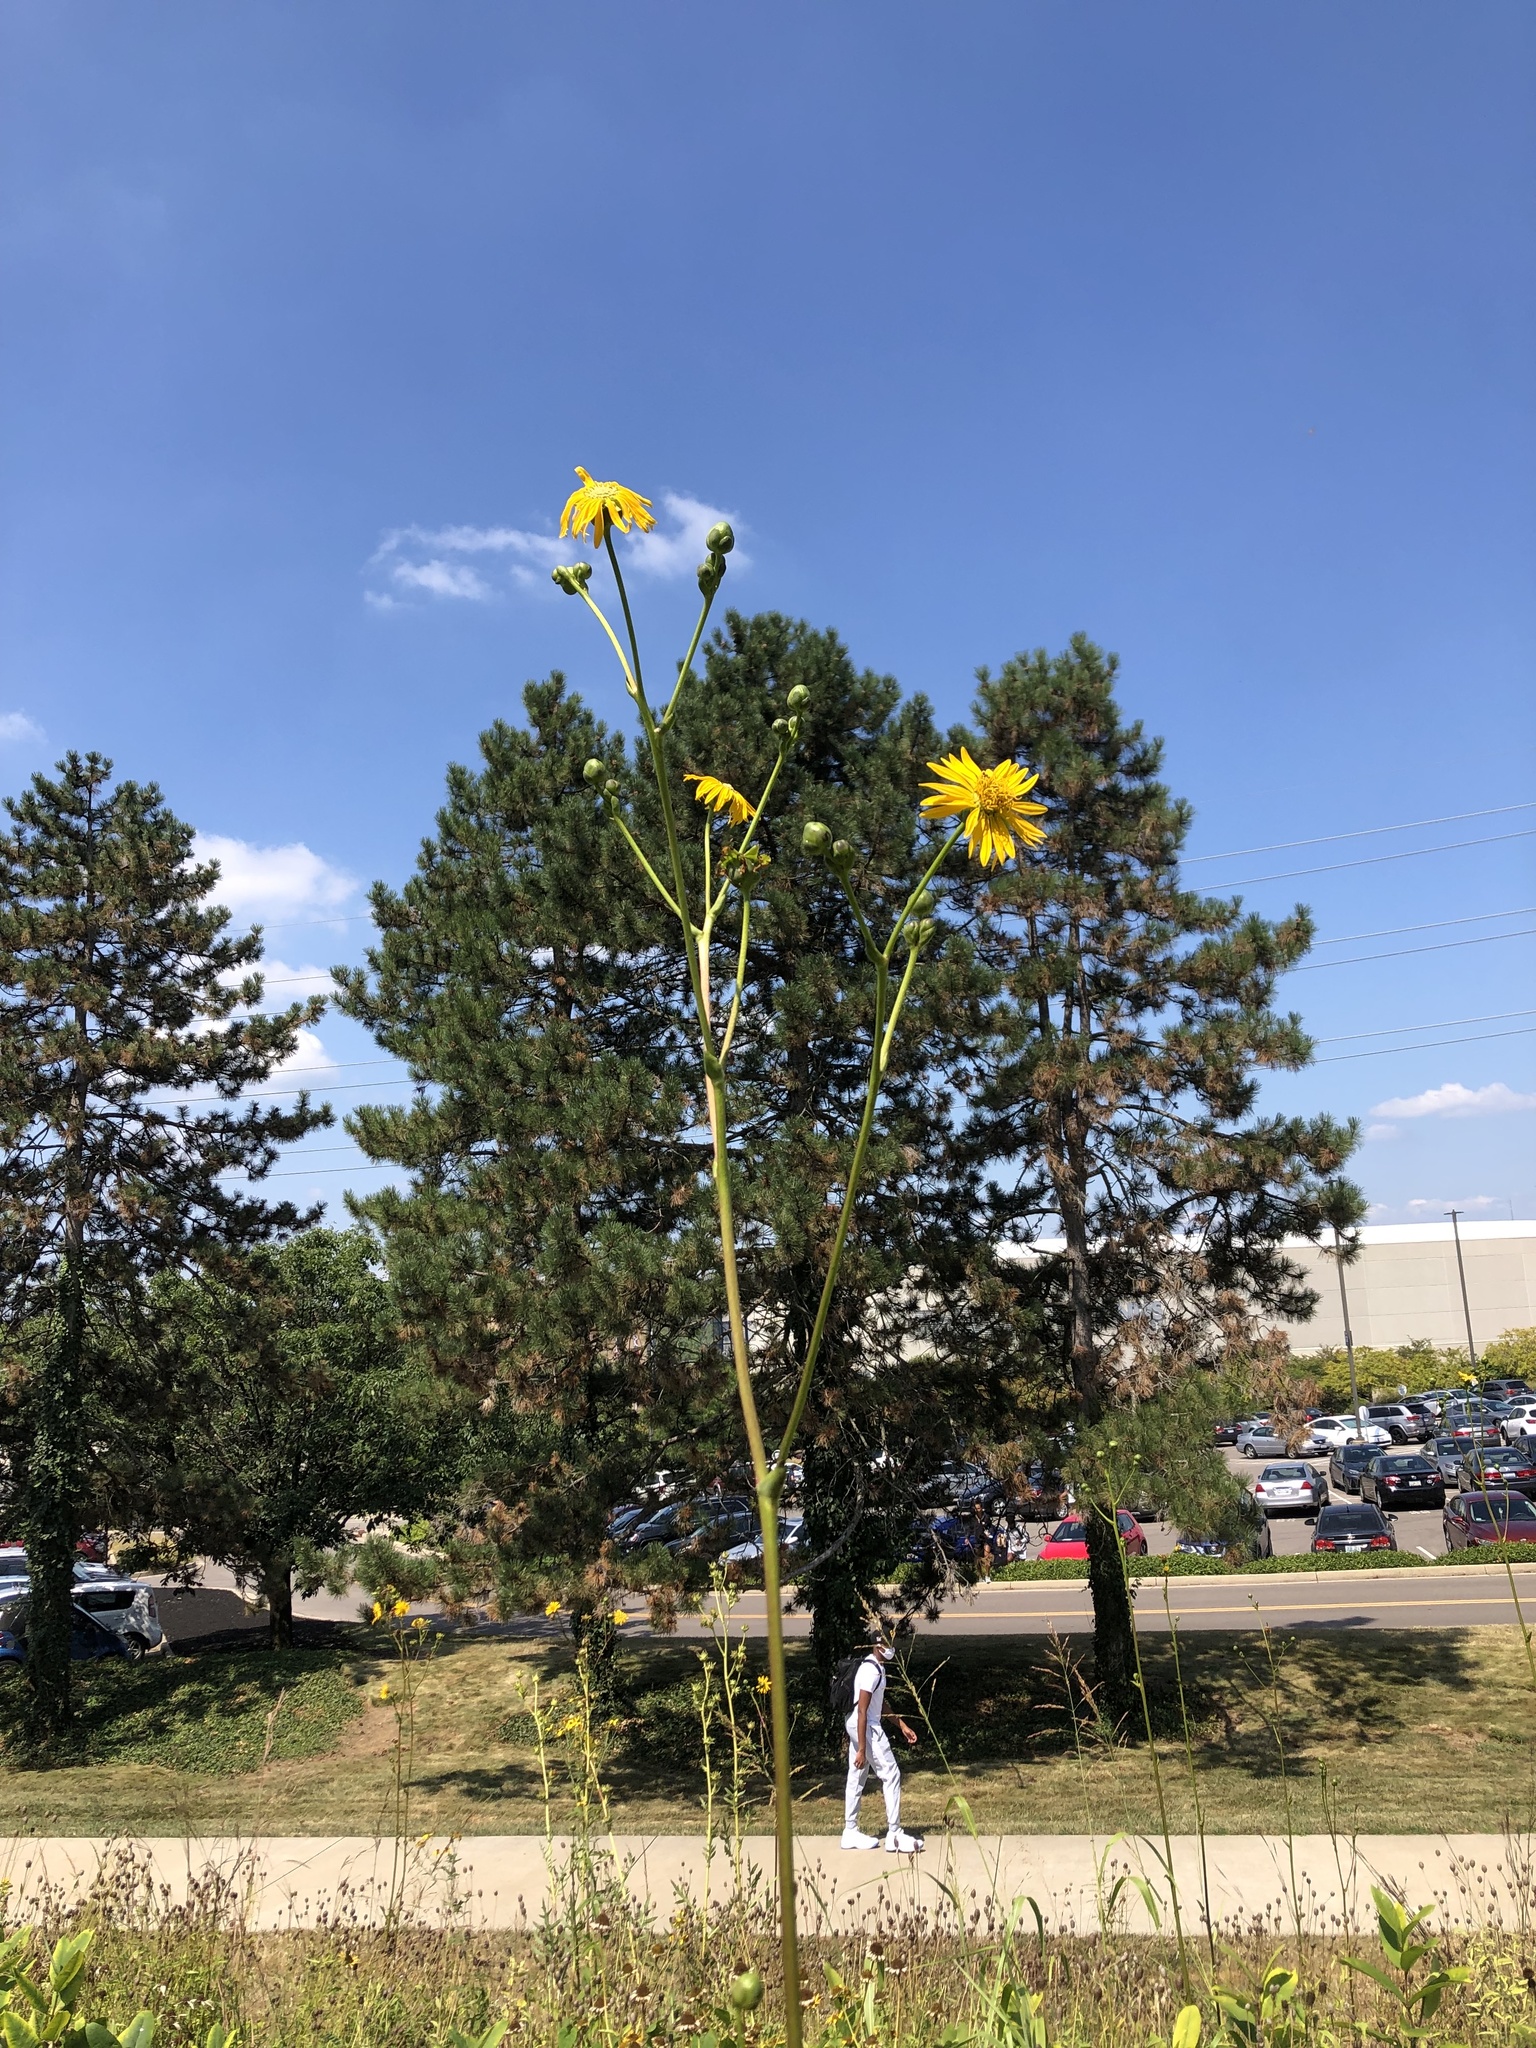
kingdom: Plantae
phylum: Tracheophyta
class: Magnoliopsida
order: Asterales
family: Asteraceae
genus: Silphium
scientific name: Silphium terebinthinaceum
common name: Basal-leaf rosinweed
